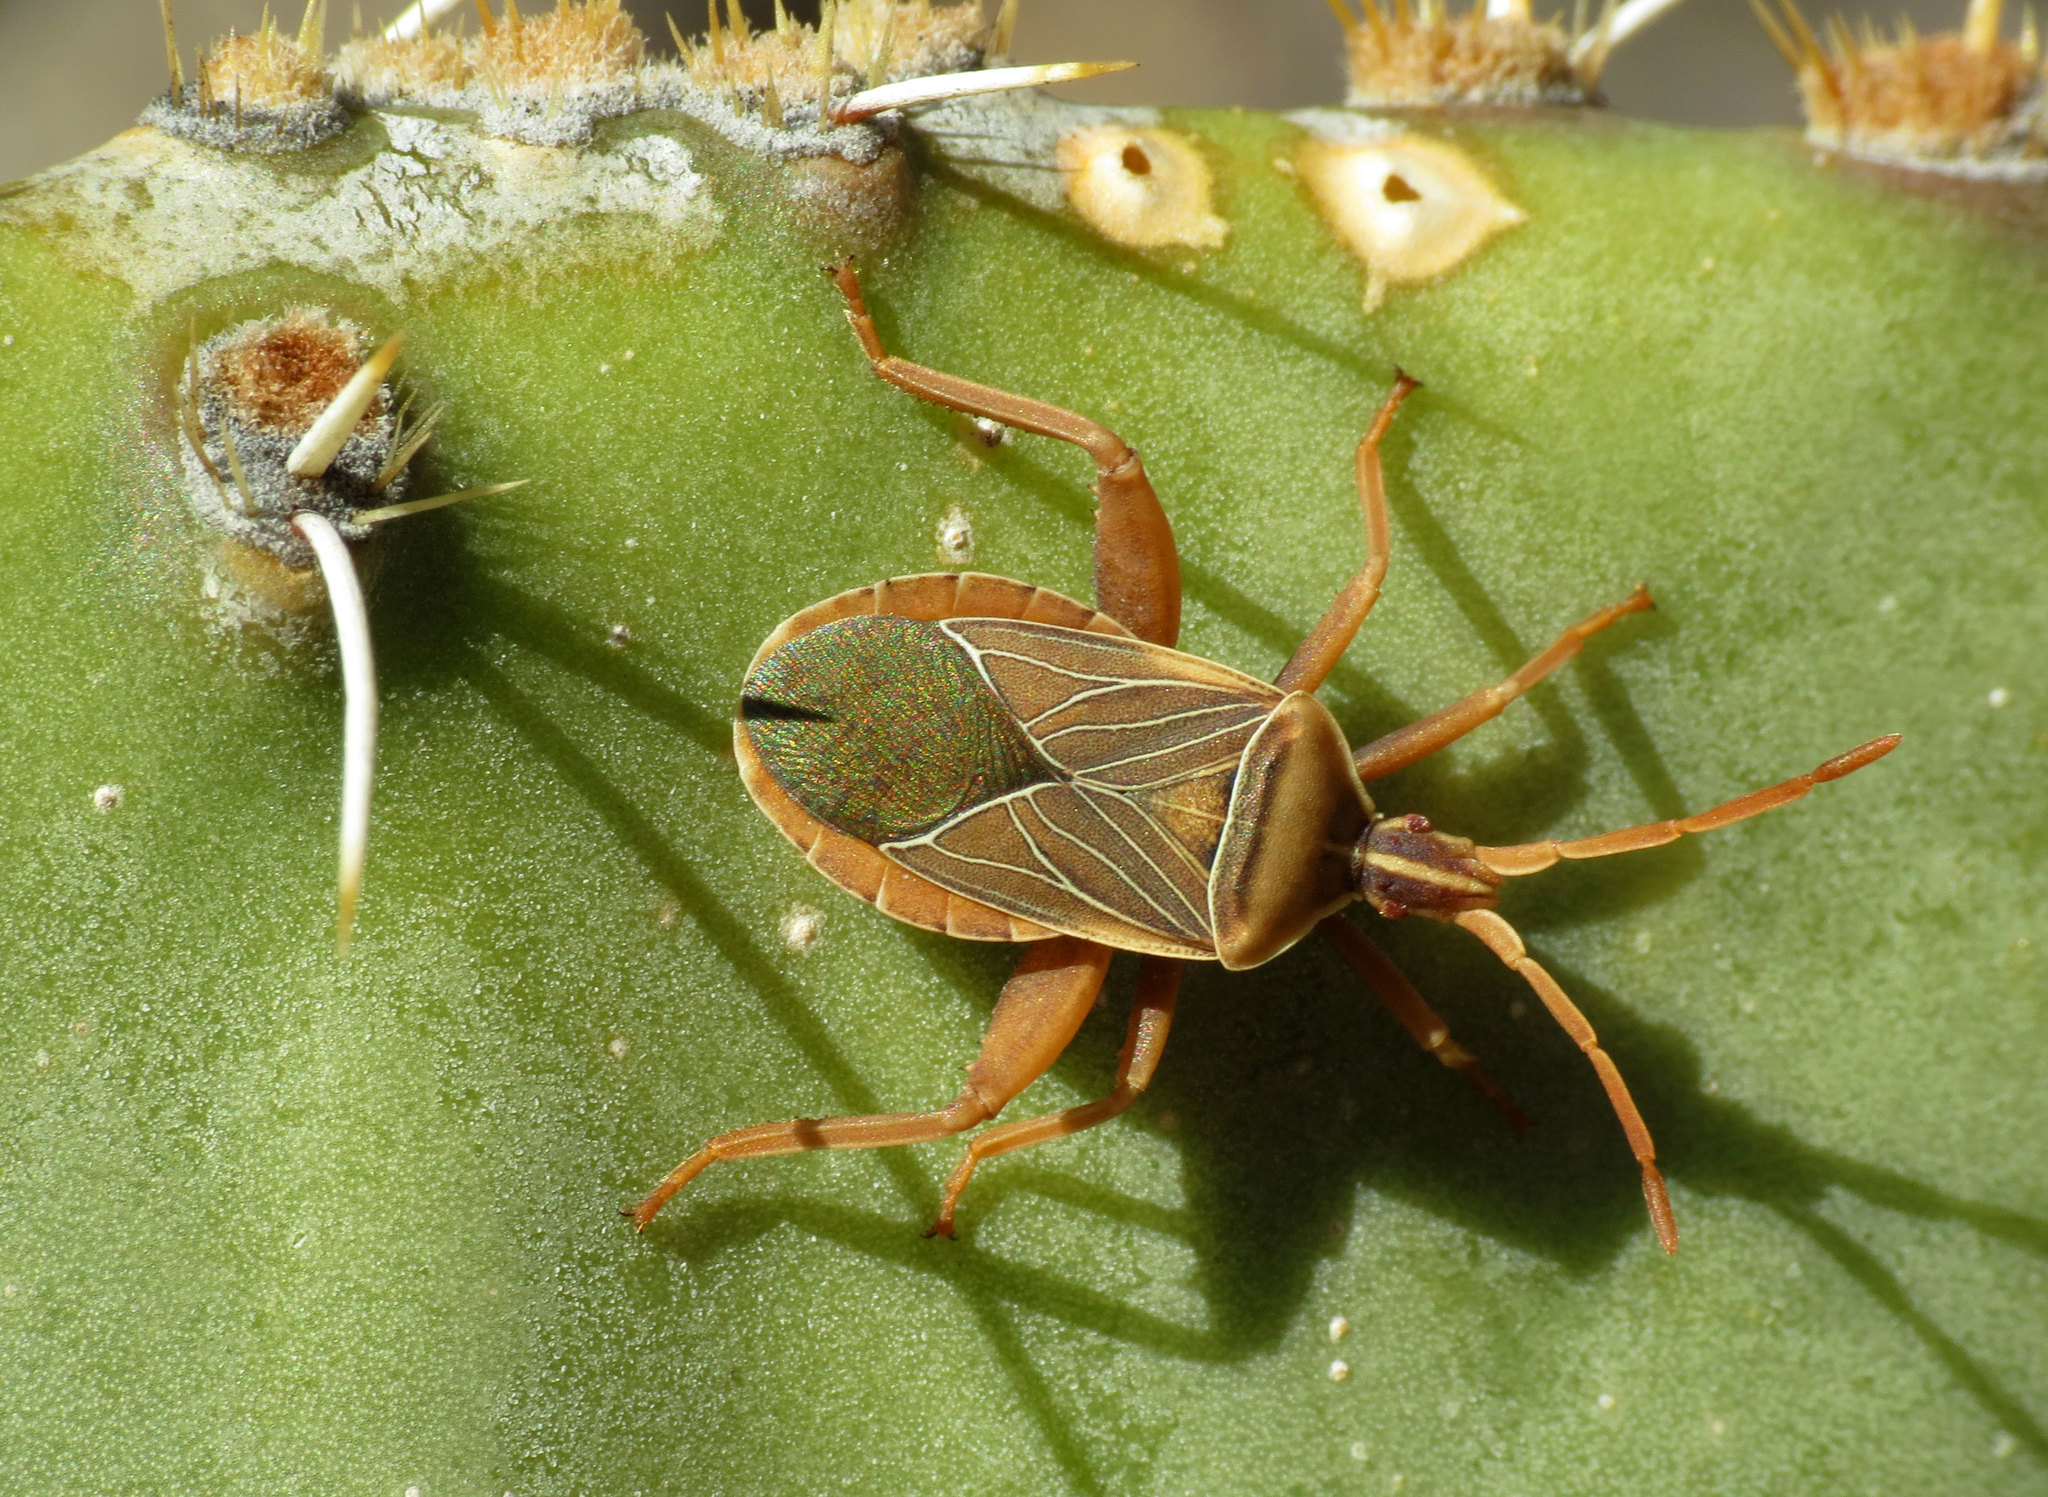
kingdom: Animalia
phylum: Arthropoda
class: Insecta
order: Hemiptera
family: Coreidae
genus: Chelinidea
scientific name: Chelinidea vittiger
